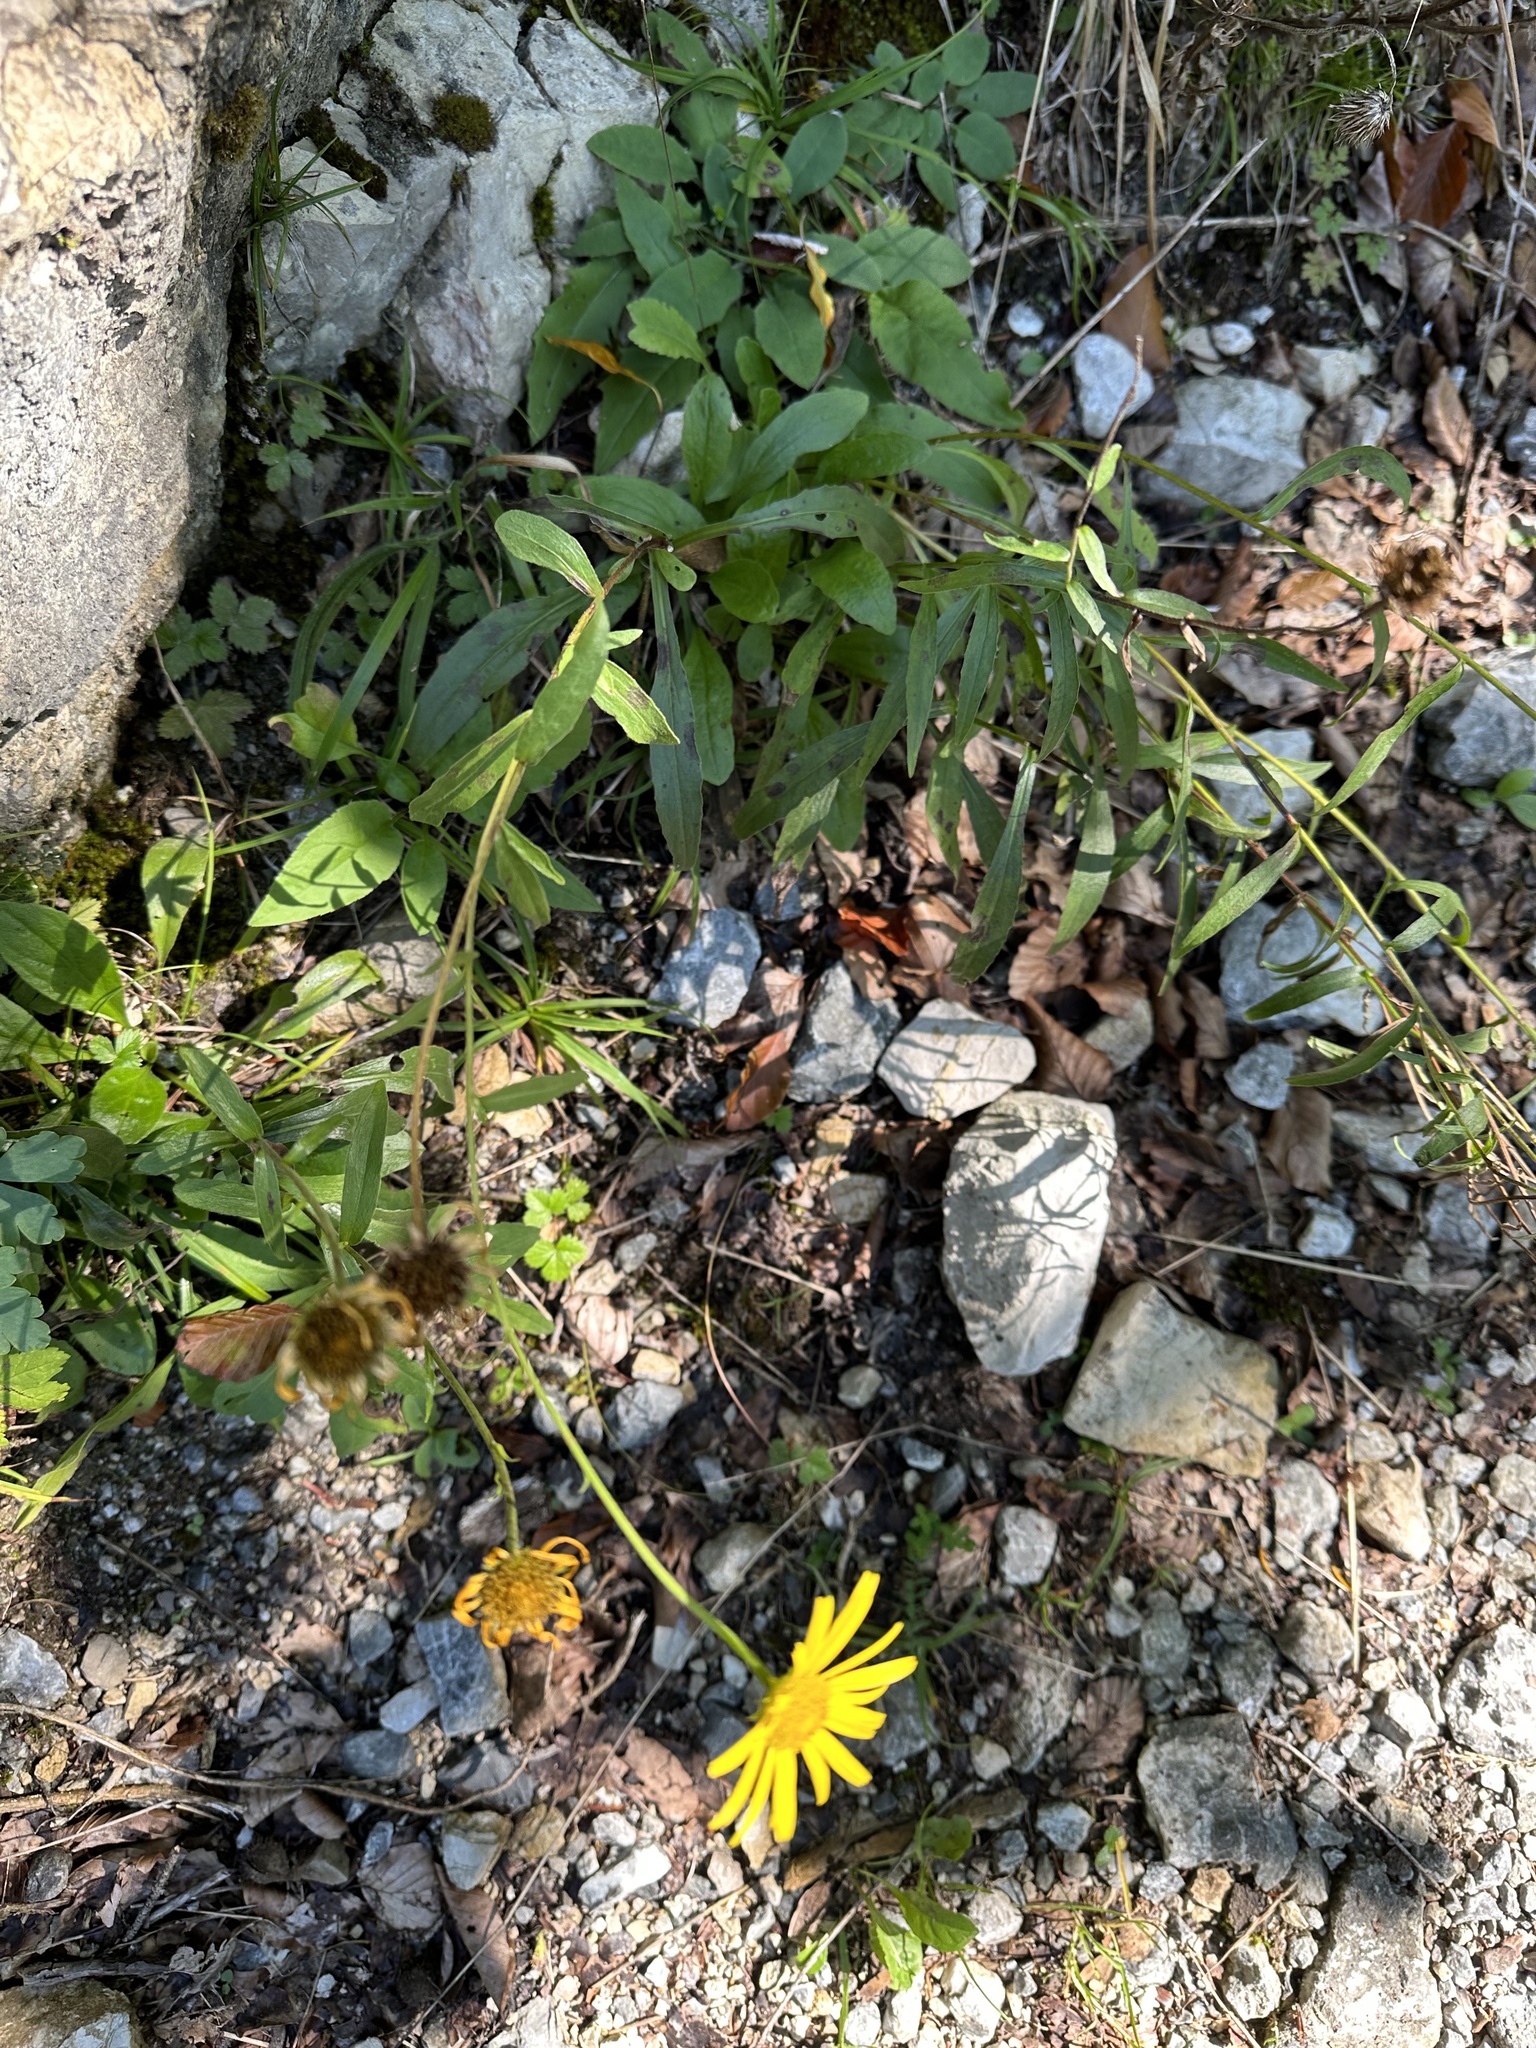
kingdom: Plantae
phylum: Tracheophyta
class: Magnoliopsida
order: Asterales
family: Asteraceae
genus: Buphthalmum
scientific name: Buphthalmum salicifolium
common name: Willow-leaved yellow-oxeye
